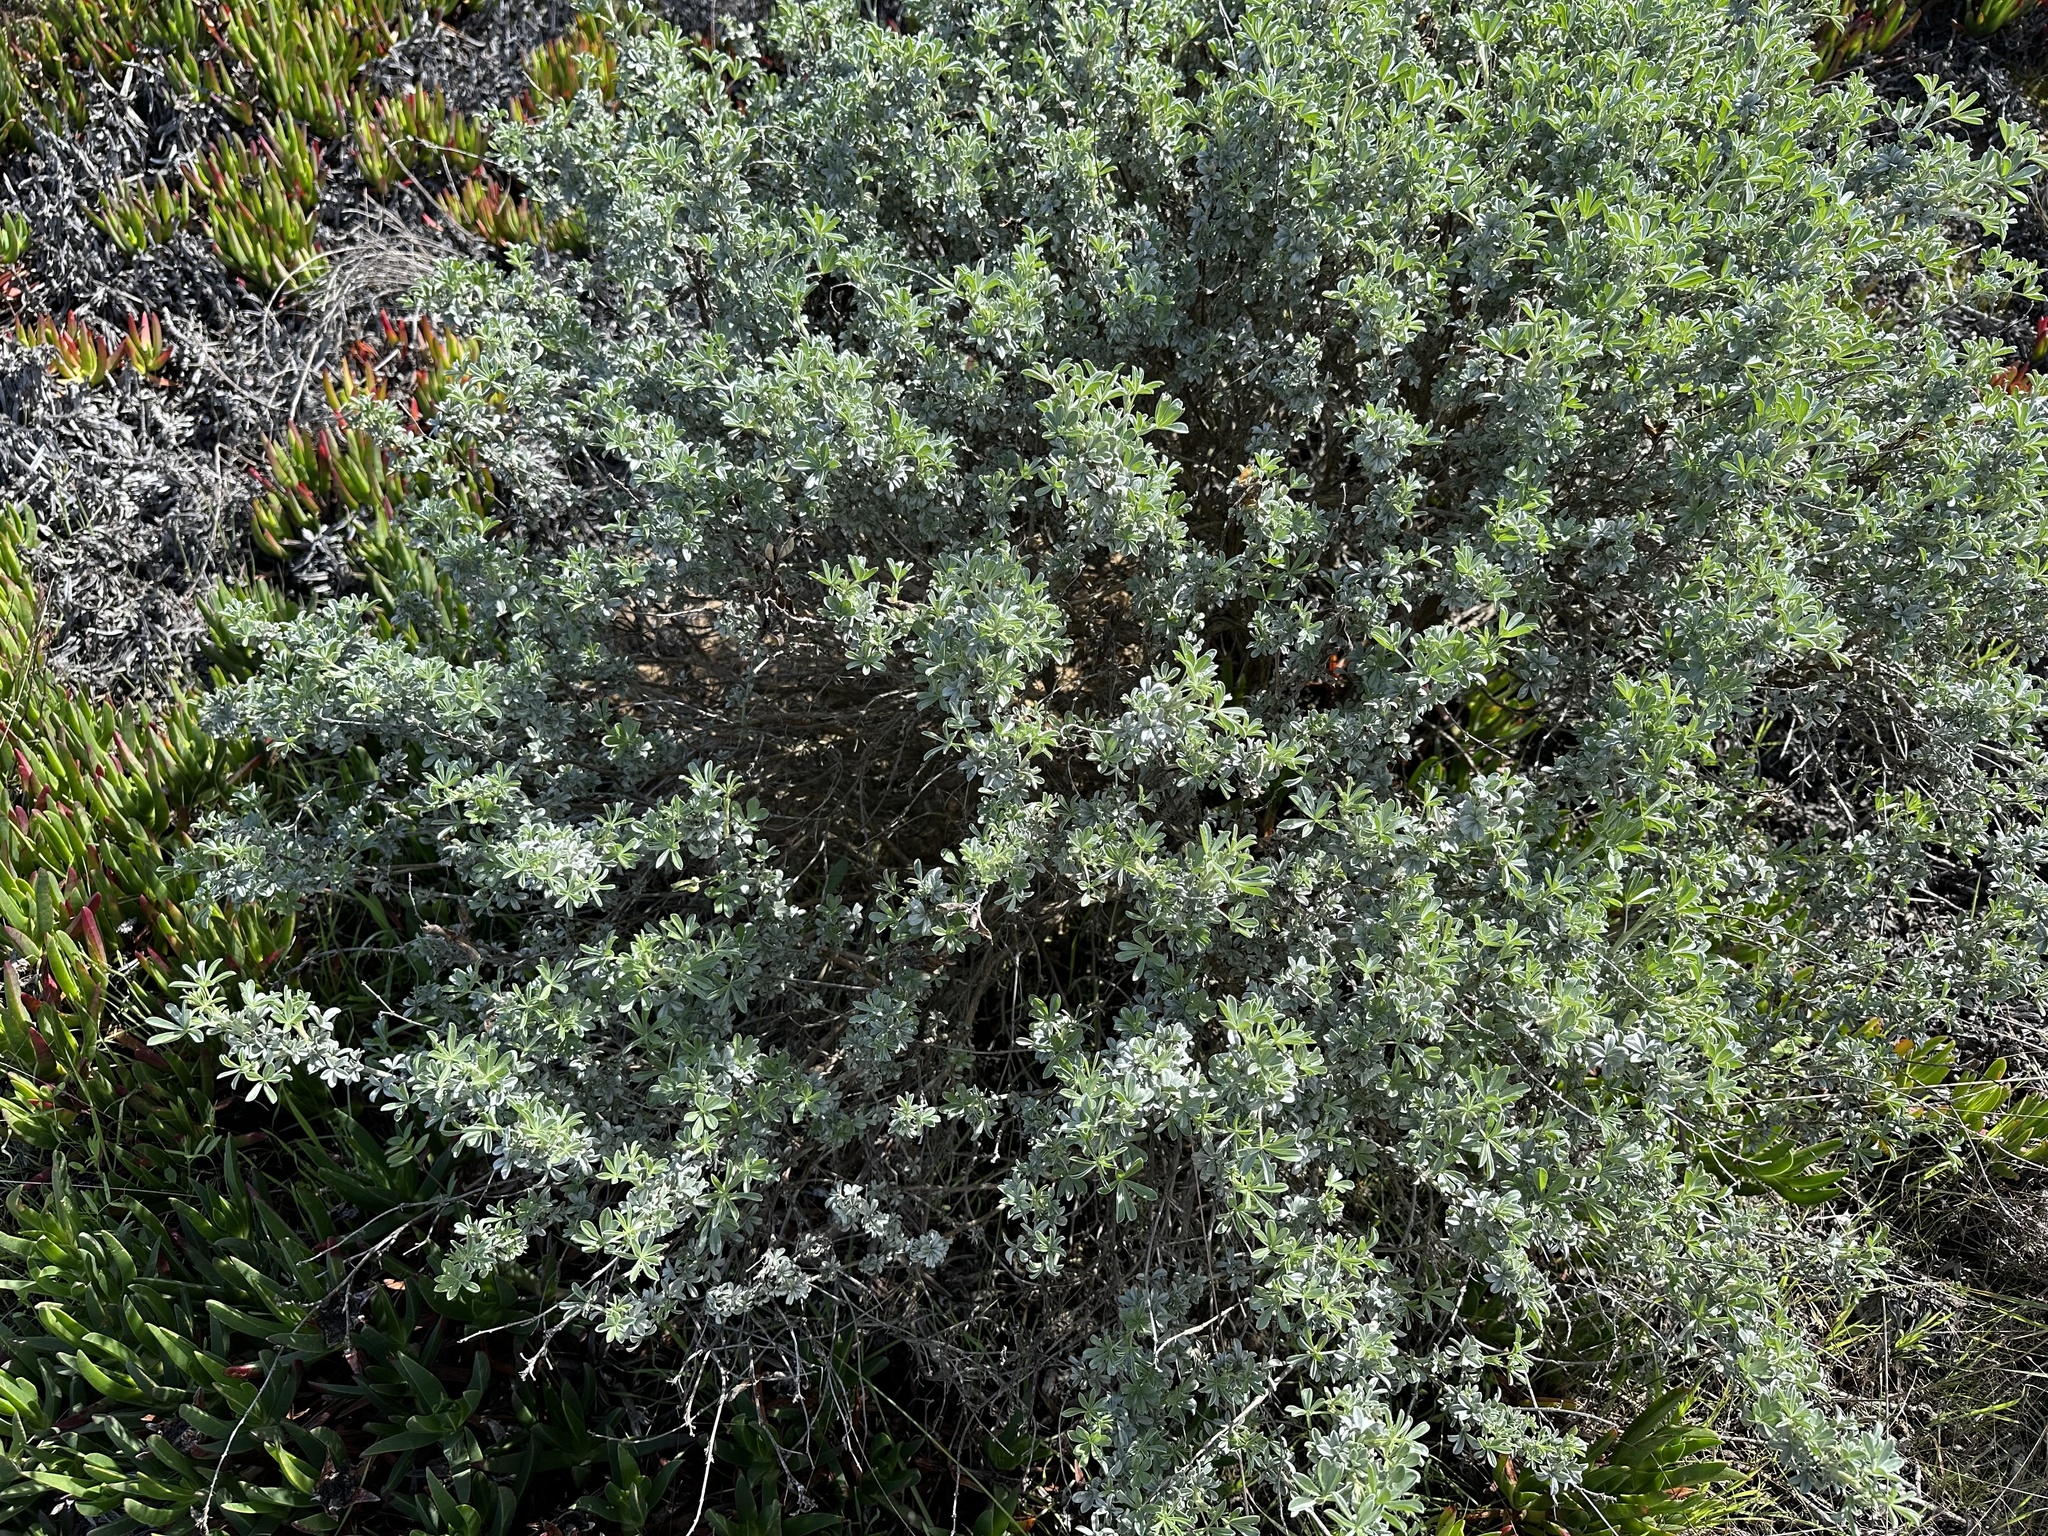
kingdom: Animalia
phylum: Arthropoda
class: Insecta
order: Diptera
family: Cecidomyiidae
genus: Dasineura
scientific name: Dasineura lupinorum
